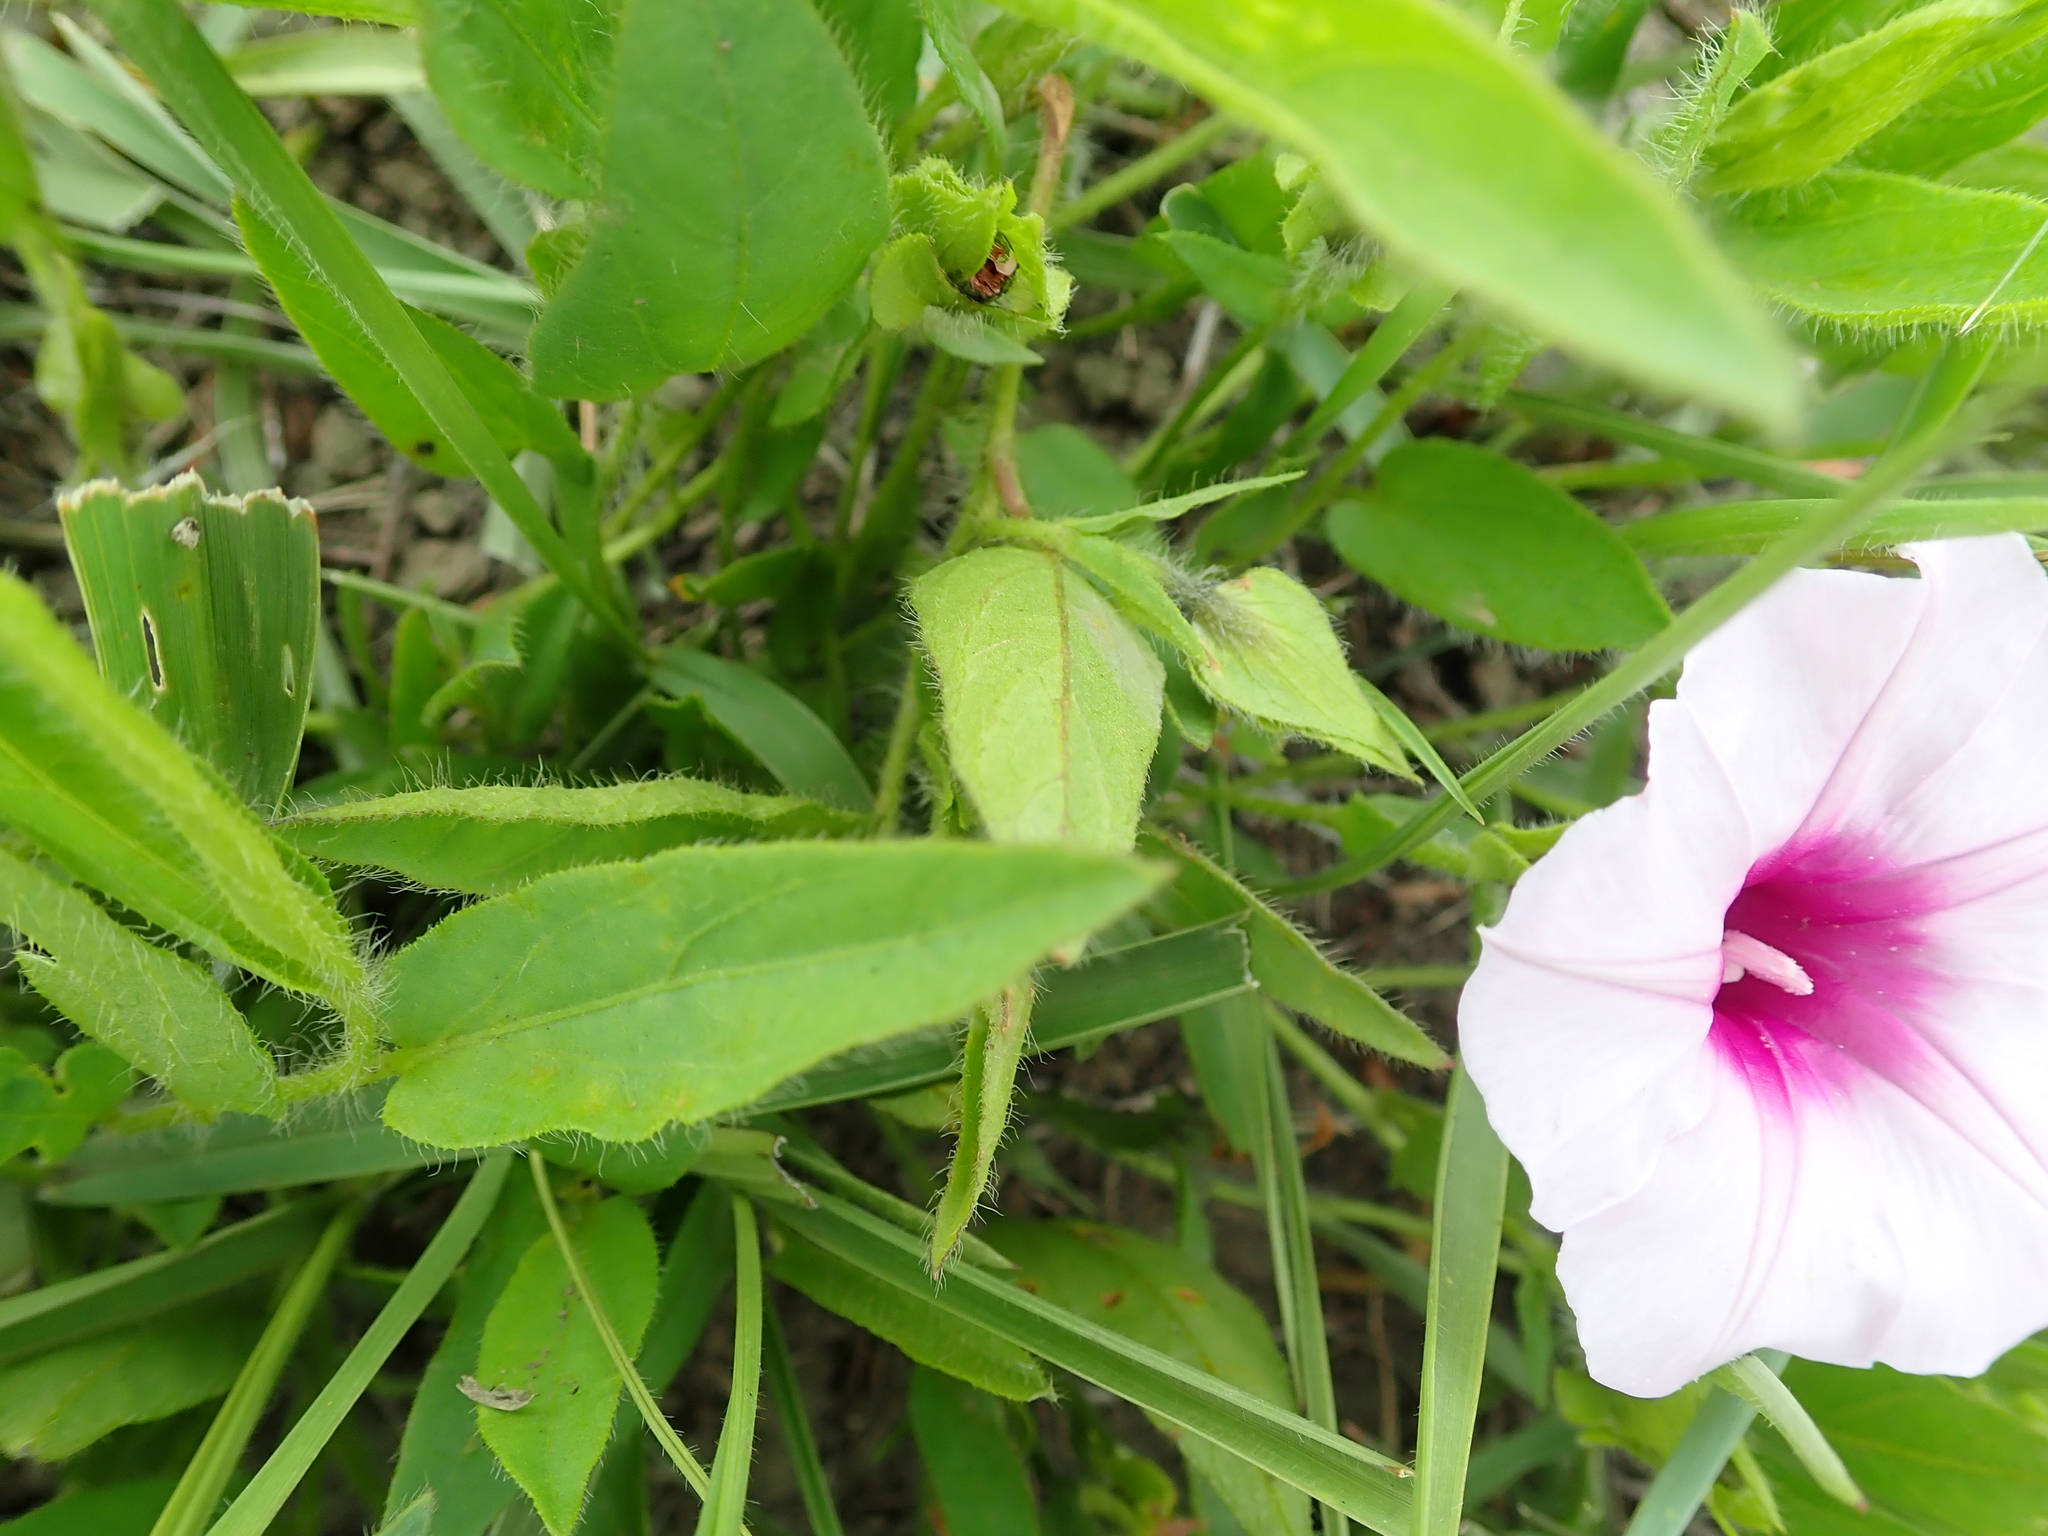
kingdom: Plantae
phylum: Tracheophyta
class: Magnoliopsida
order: Solanales
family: Convolvulaceae
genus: Ipomoea
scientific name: Ipomoea crassipes
